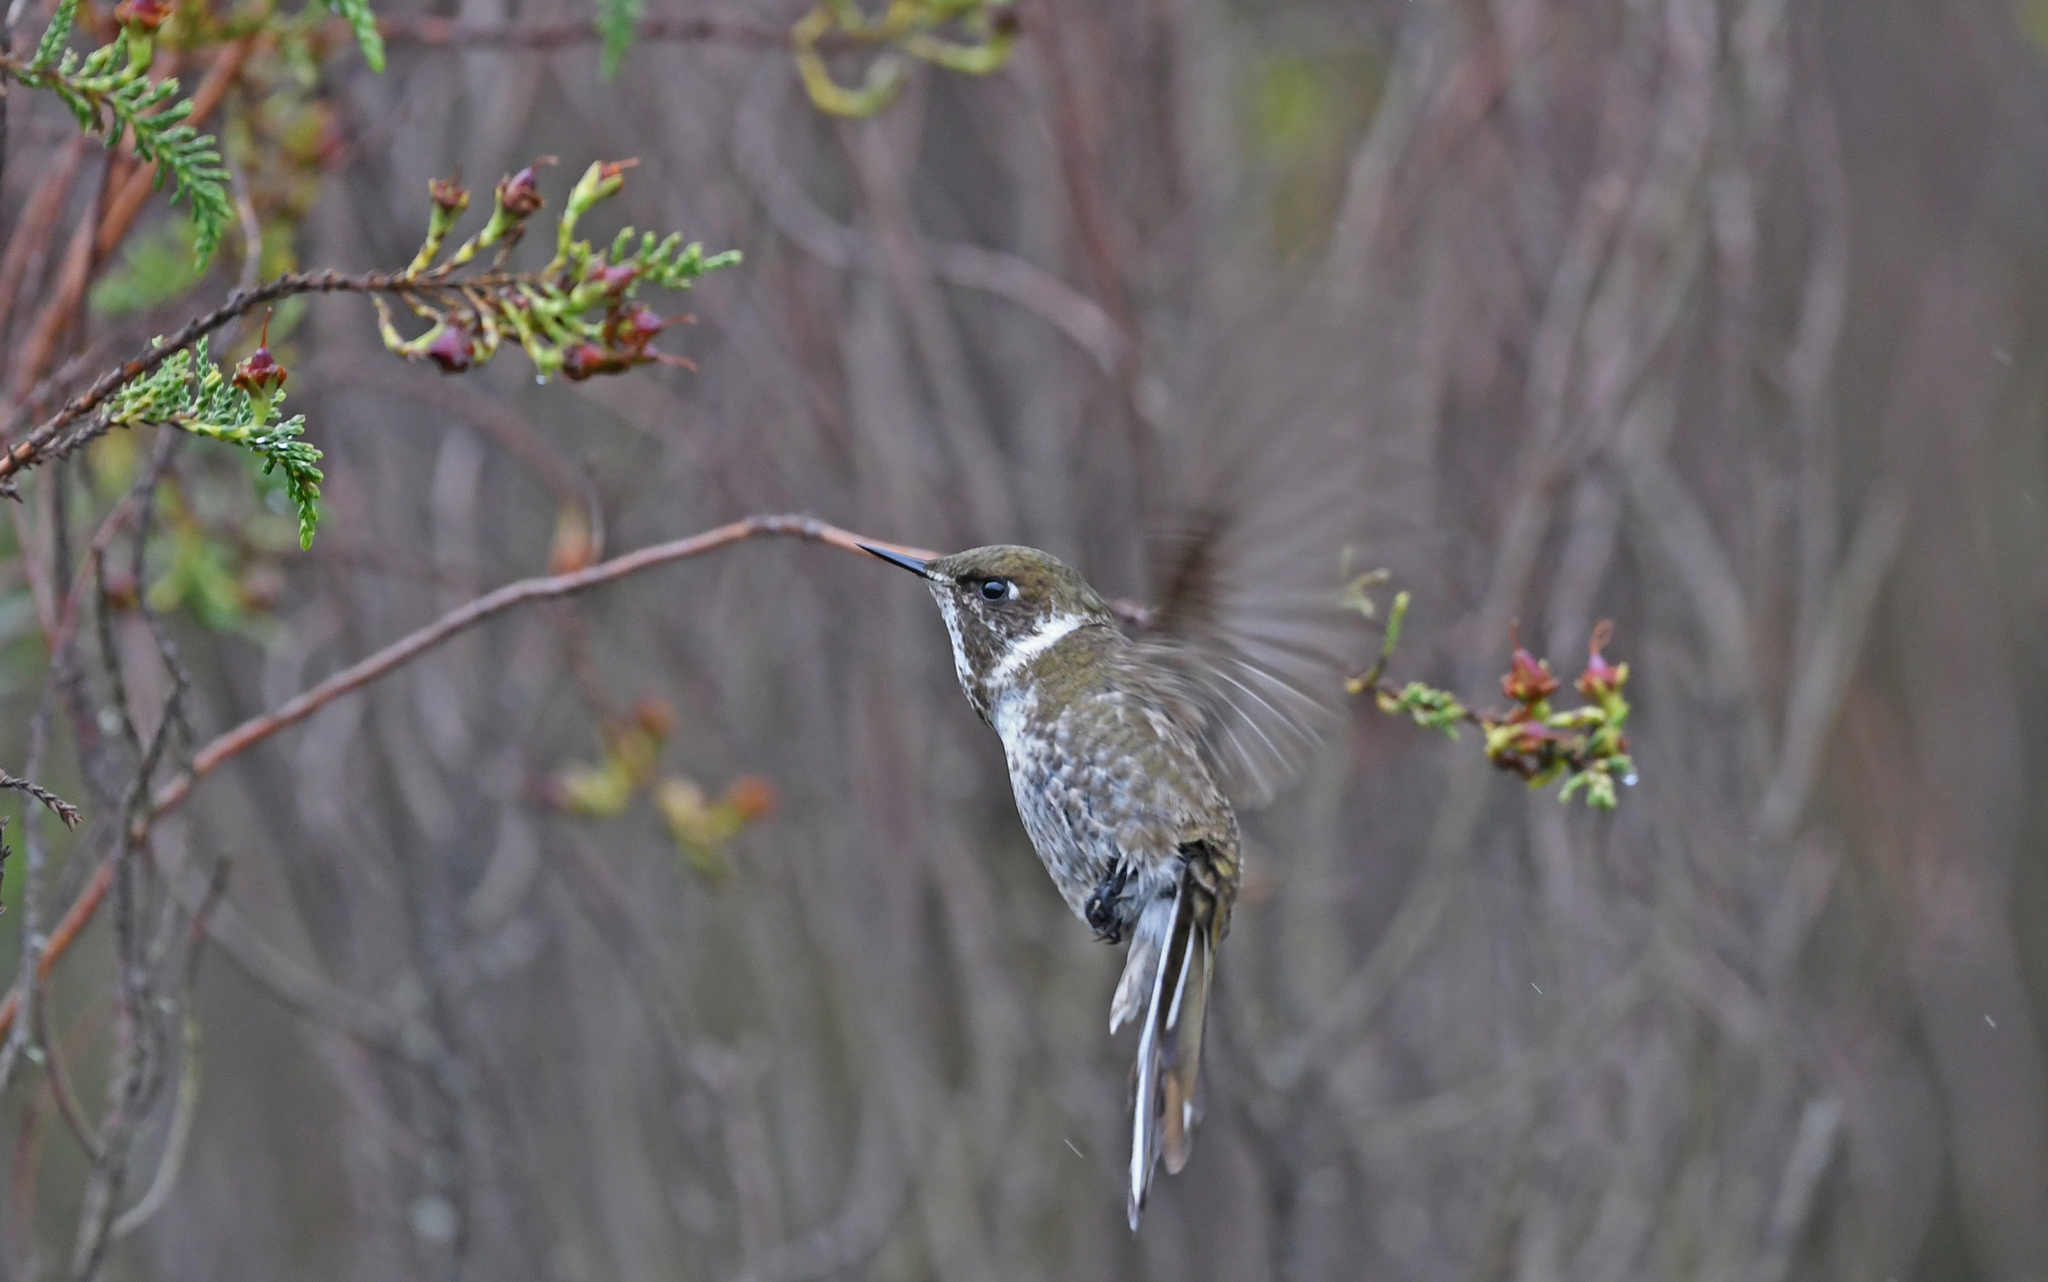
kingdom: Animalia
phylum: Chordata
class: Aves
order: Apodiformes
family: Trochilidae
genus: Oxypogon
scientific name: Oxypogon guerinii
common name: Bearded helmetcrest
